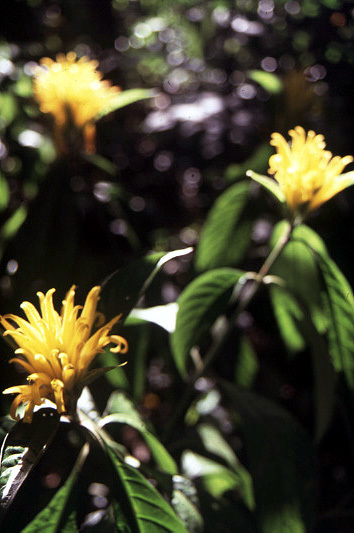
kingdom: Plantae
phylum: Tracheophyta
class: Magnoliopsida
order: Lamiales
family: Acanthaceae
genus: Justicia
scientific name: Justicia aurea
